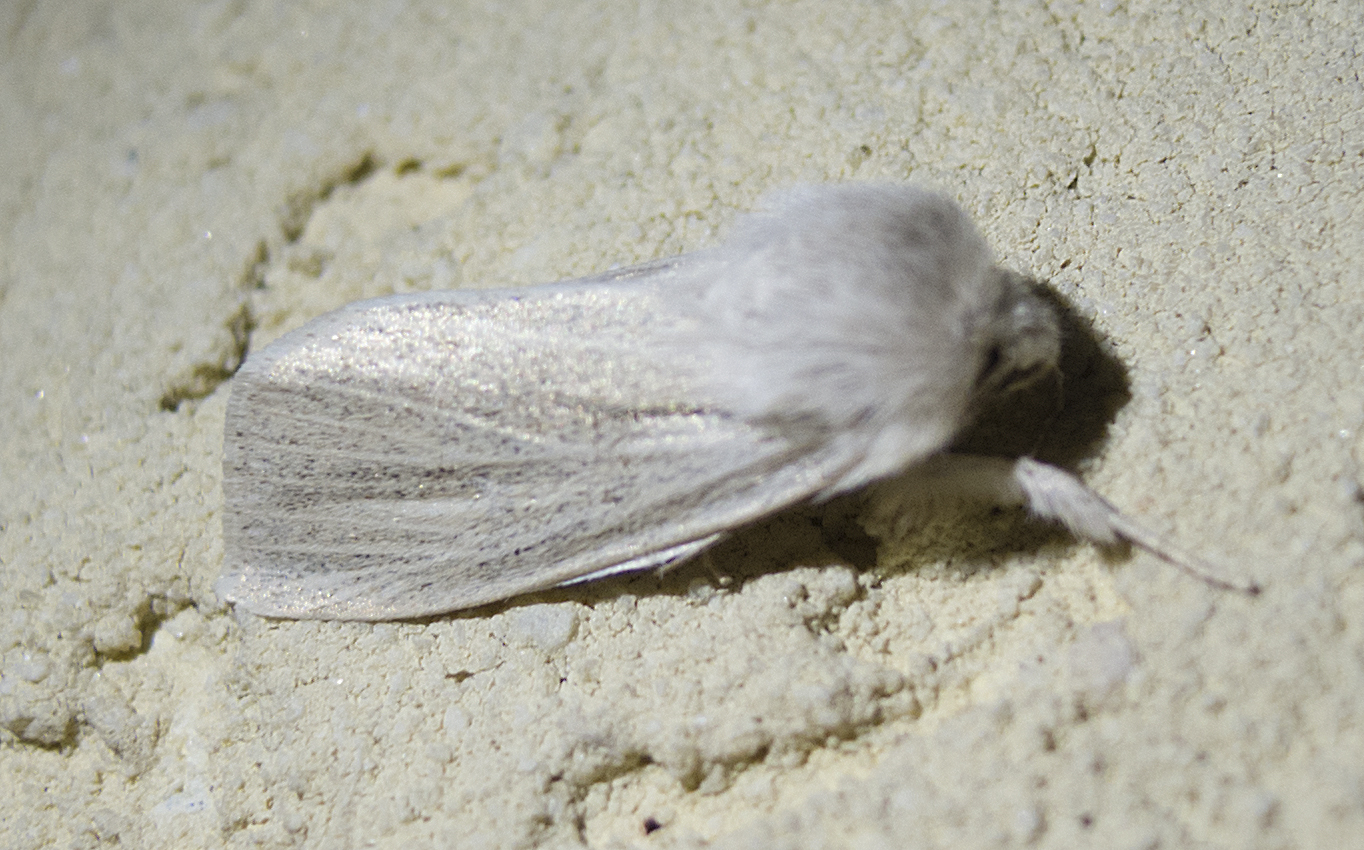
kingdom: Animalia
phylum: Arthropoda
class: Insecta
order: Lepidoptera
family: Noctuidae
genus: Simyra
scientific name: Simyra albovenosa
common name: Reed dagger
